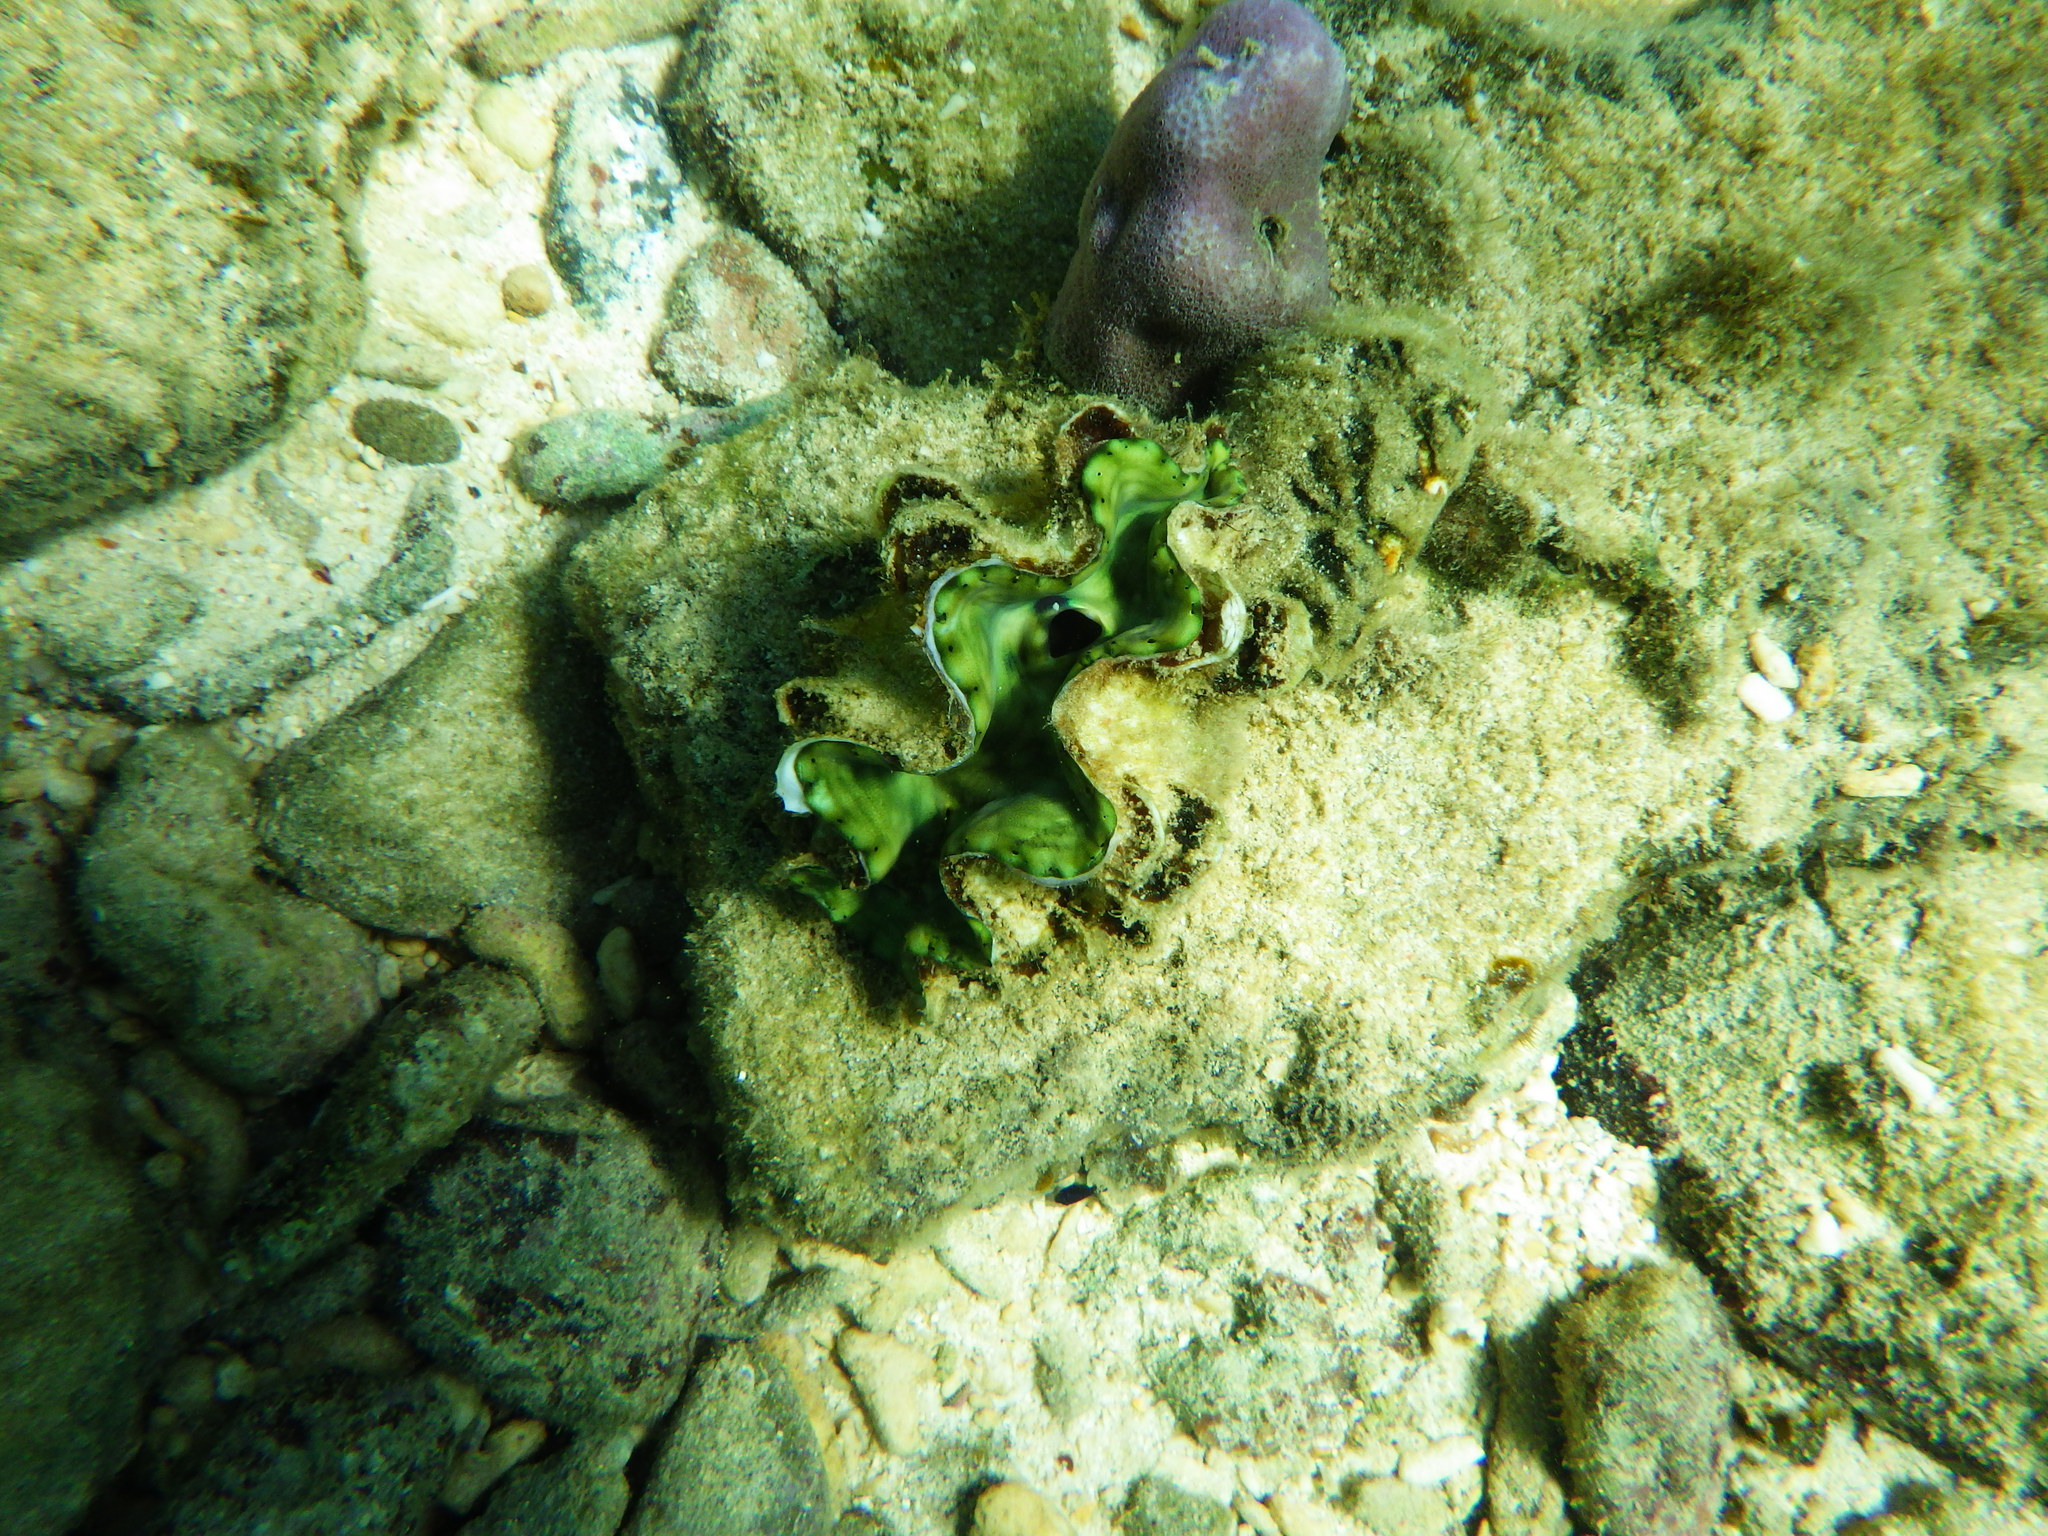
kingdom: Animalia
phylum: Mollusca
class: Bivalvia
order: Cardiida
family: Cardiidae
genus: Tridacna
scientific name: Tridacna squamosa
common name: Fluted clam
